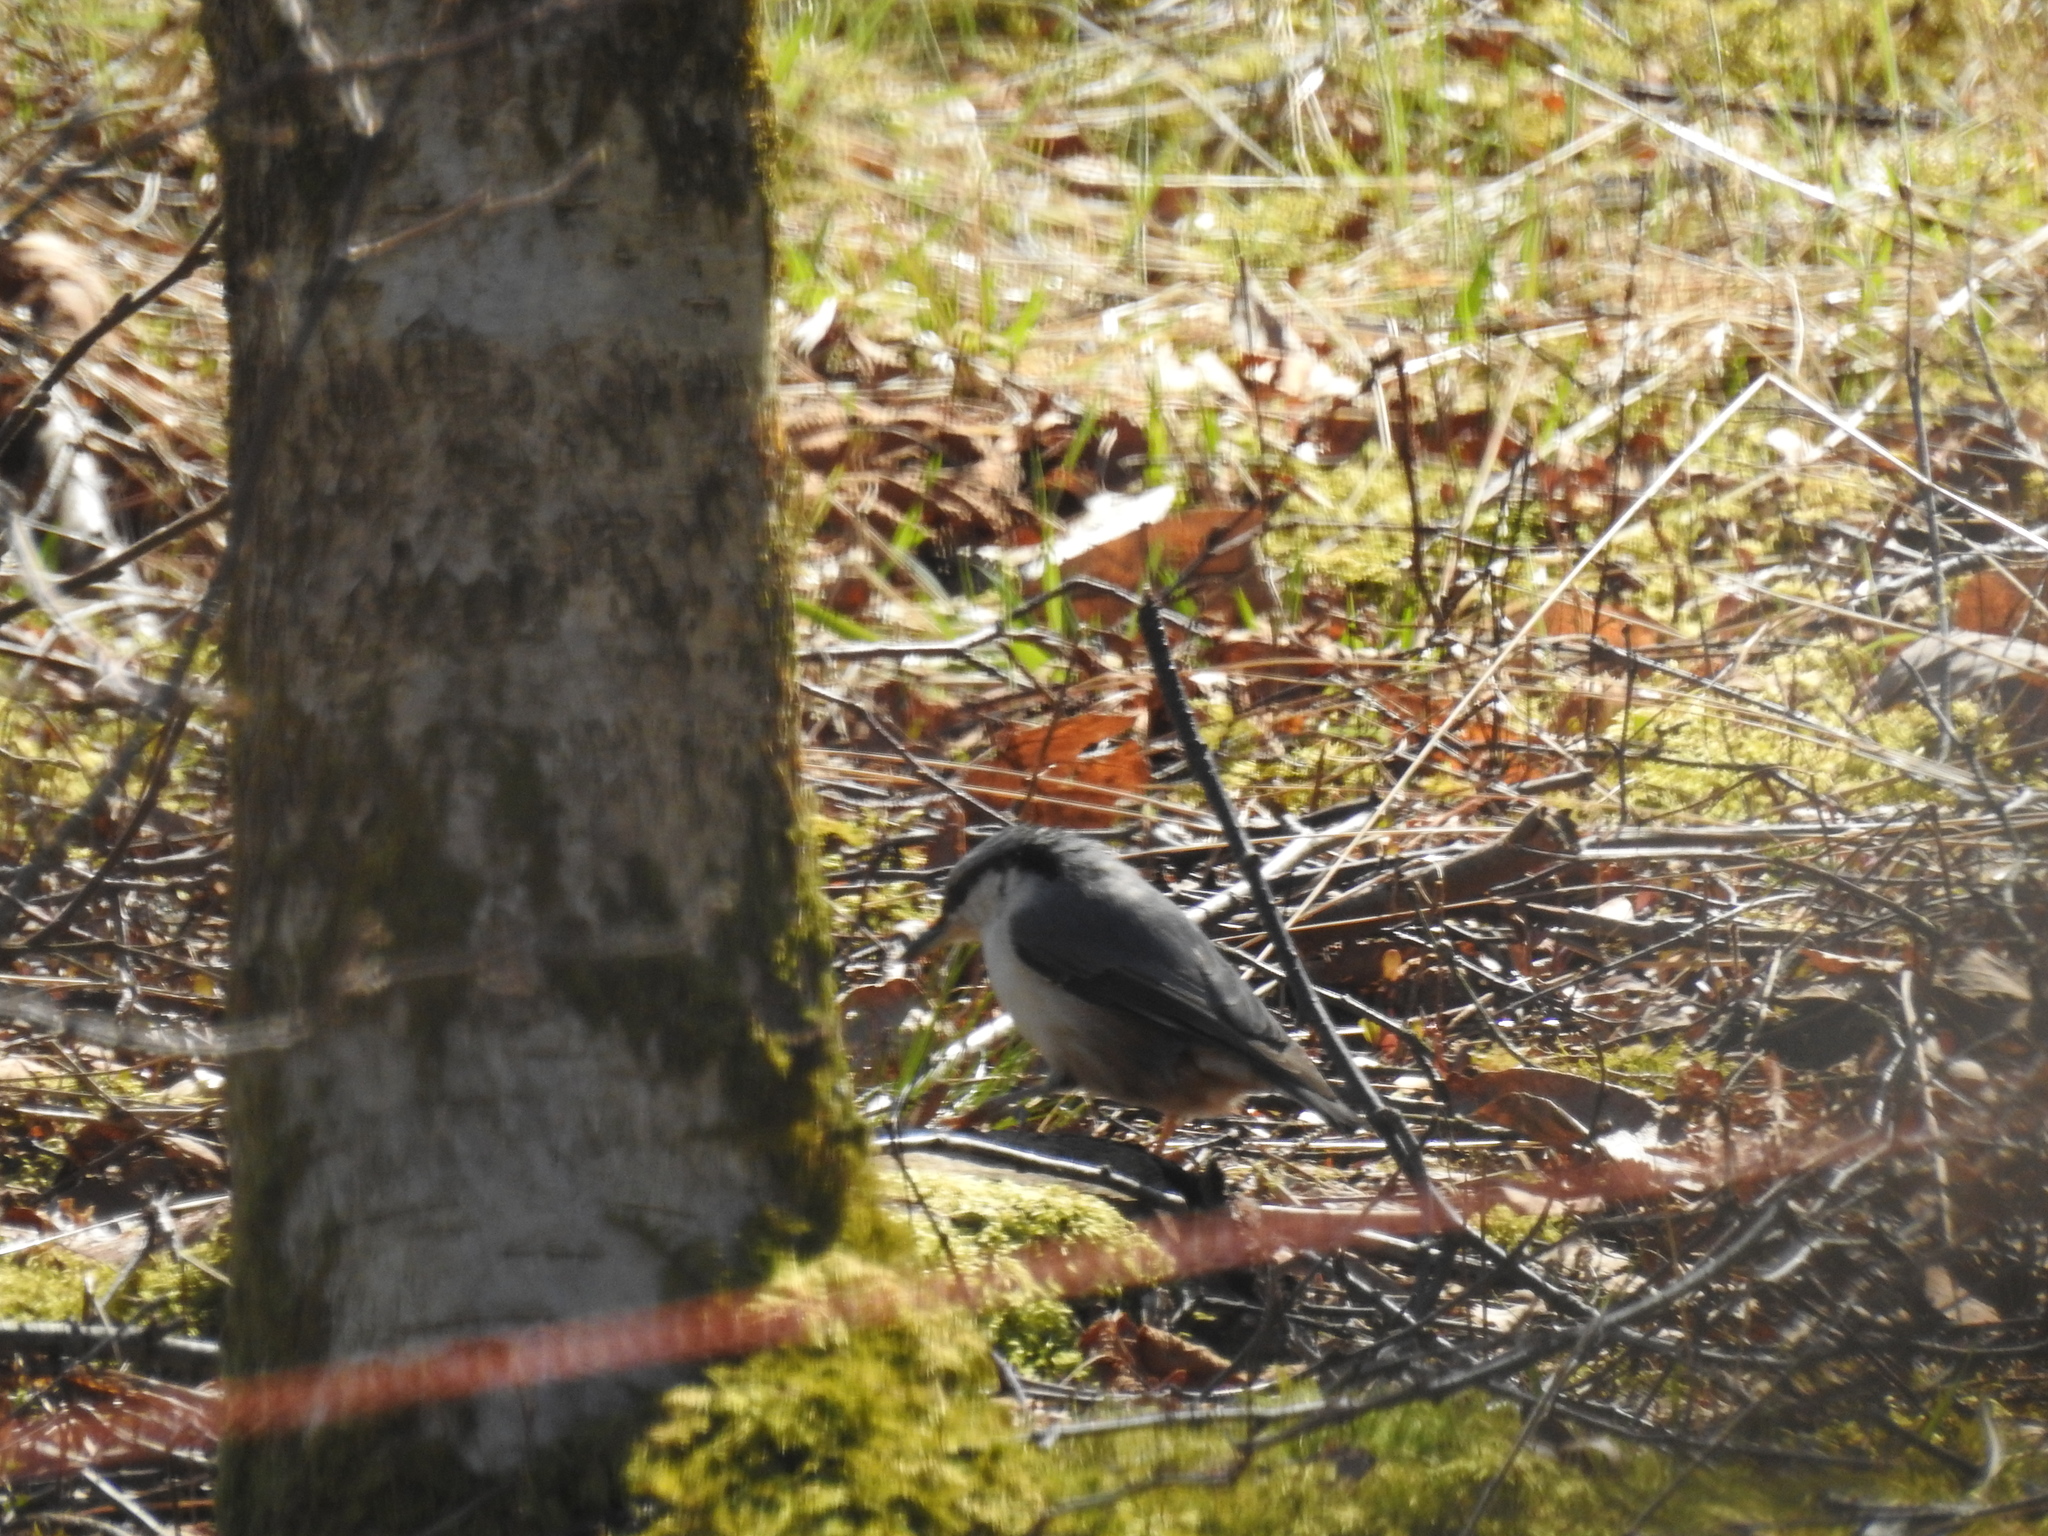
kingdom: Animalia
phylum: Chordata
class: Aves
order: Passeriformes
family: Sittidae
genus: Sitta
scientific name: Sitta europaea
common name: Eurasian nuthatch
